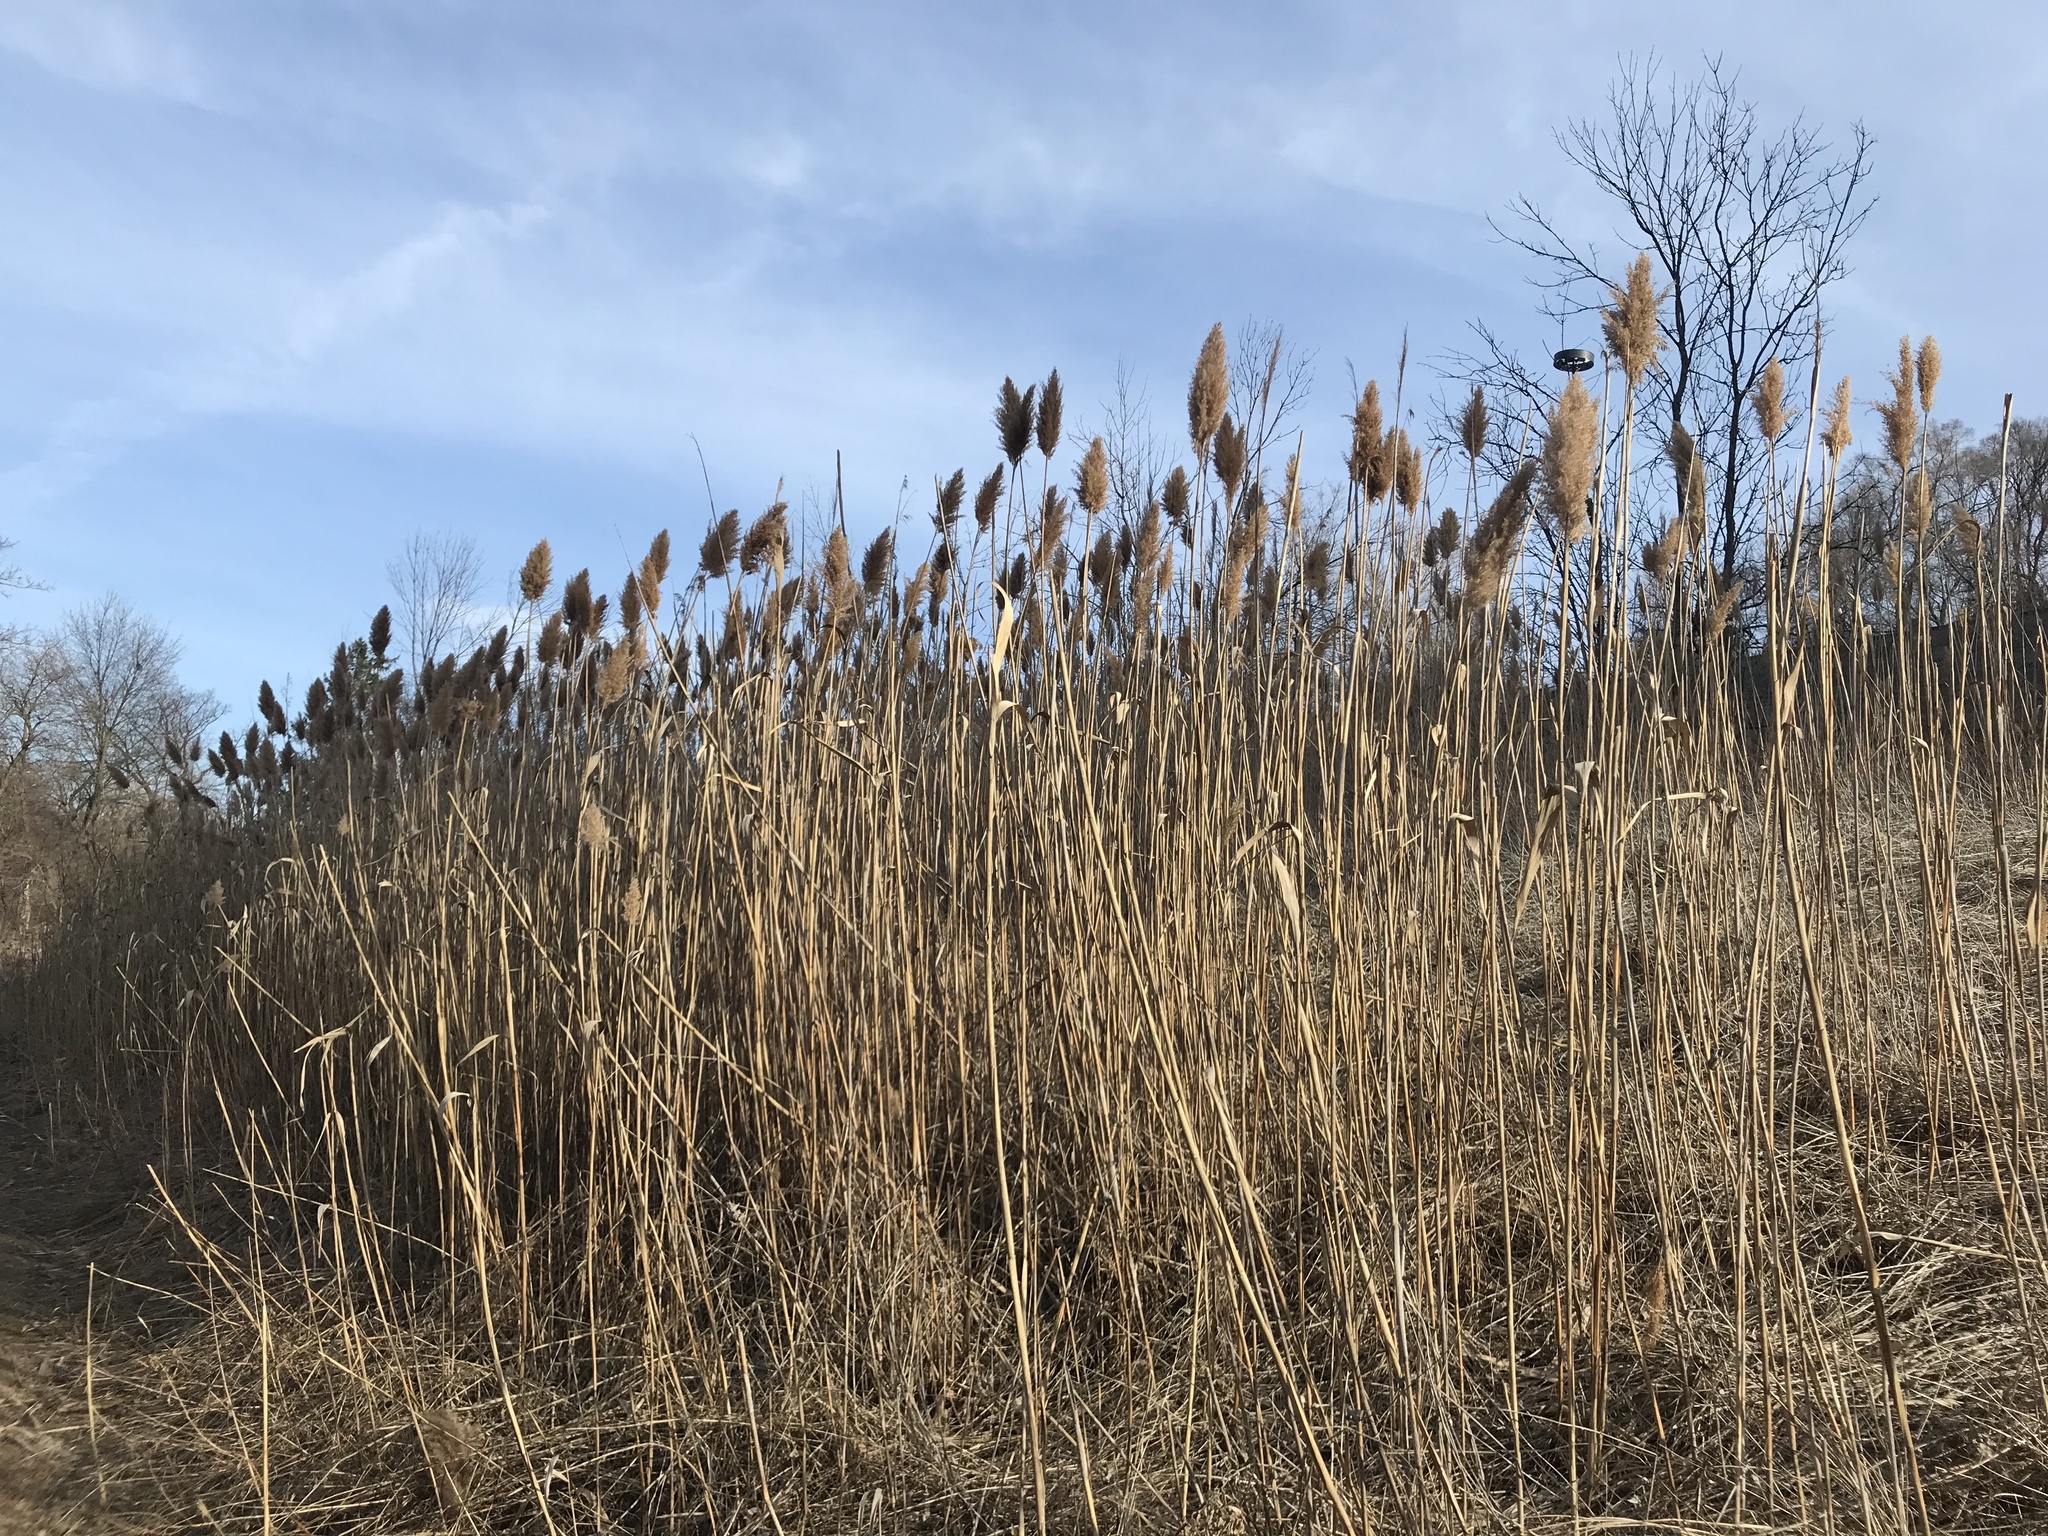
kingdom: Plantae
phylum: Tracheophyta
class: Liliopsida
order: Poales
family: Poaceae
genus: Phragmites
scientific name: Phragmites australis
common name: Common reed
